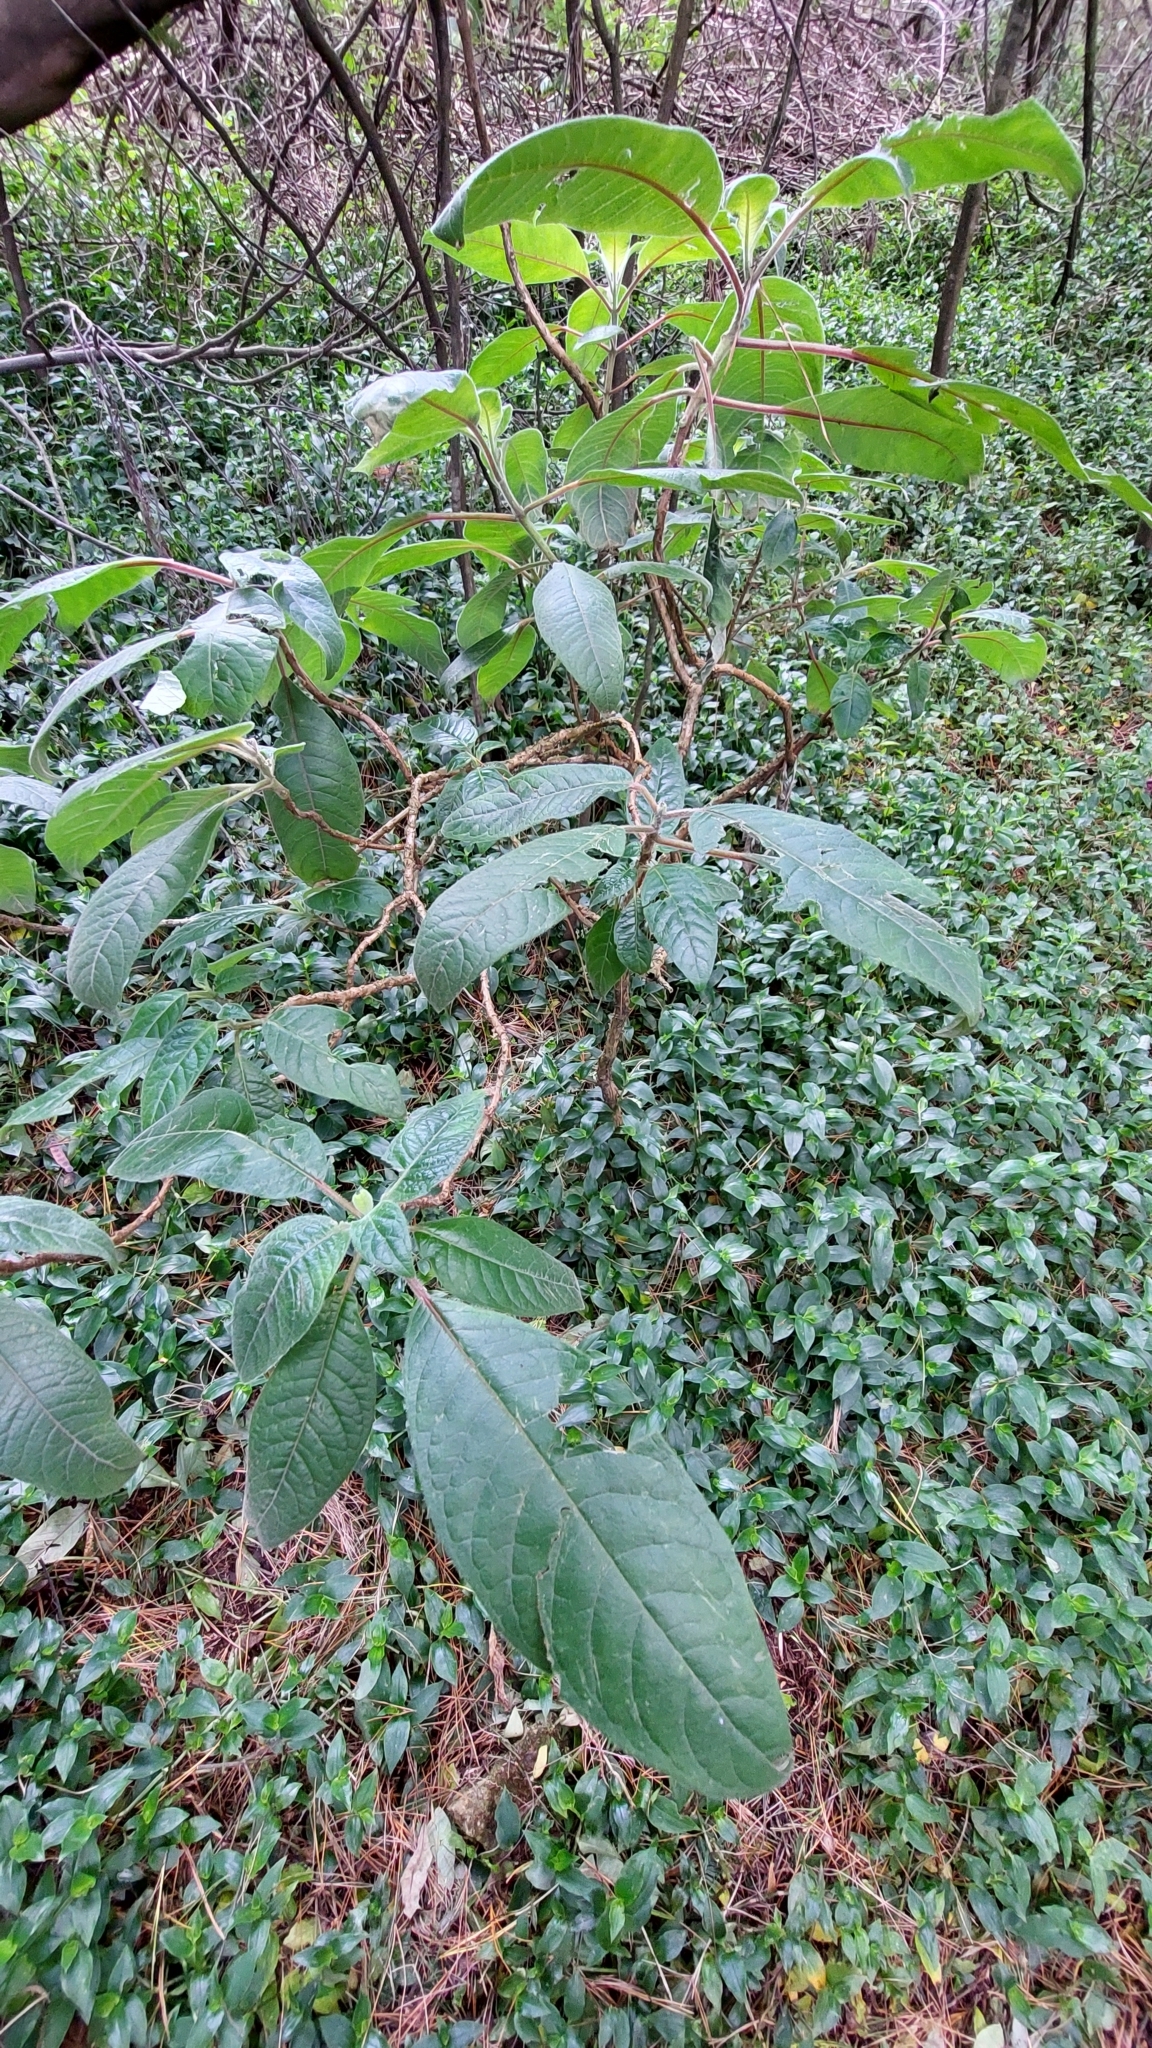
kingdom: Plantae
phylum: Tracheophyta
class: Magnoliopsida
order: Myrtales
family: Onagraceae
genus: Fuchsia
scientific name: Fuchsia boliviana
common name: Bolivian fuchsia
